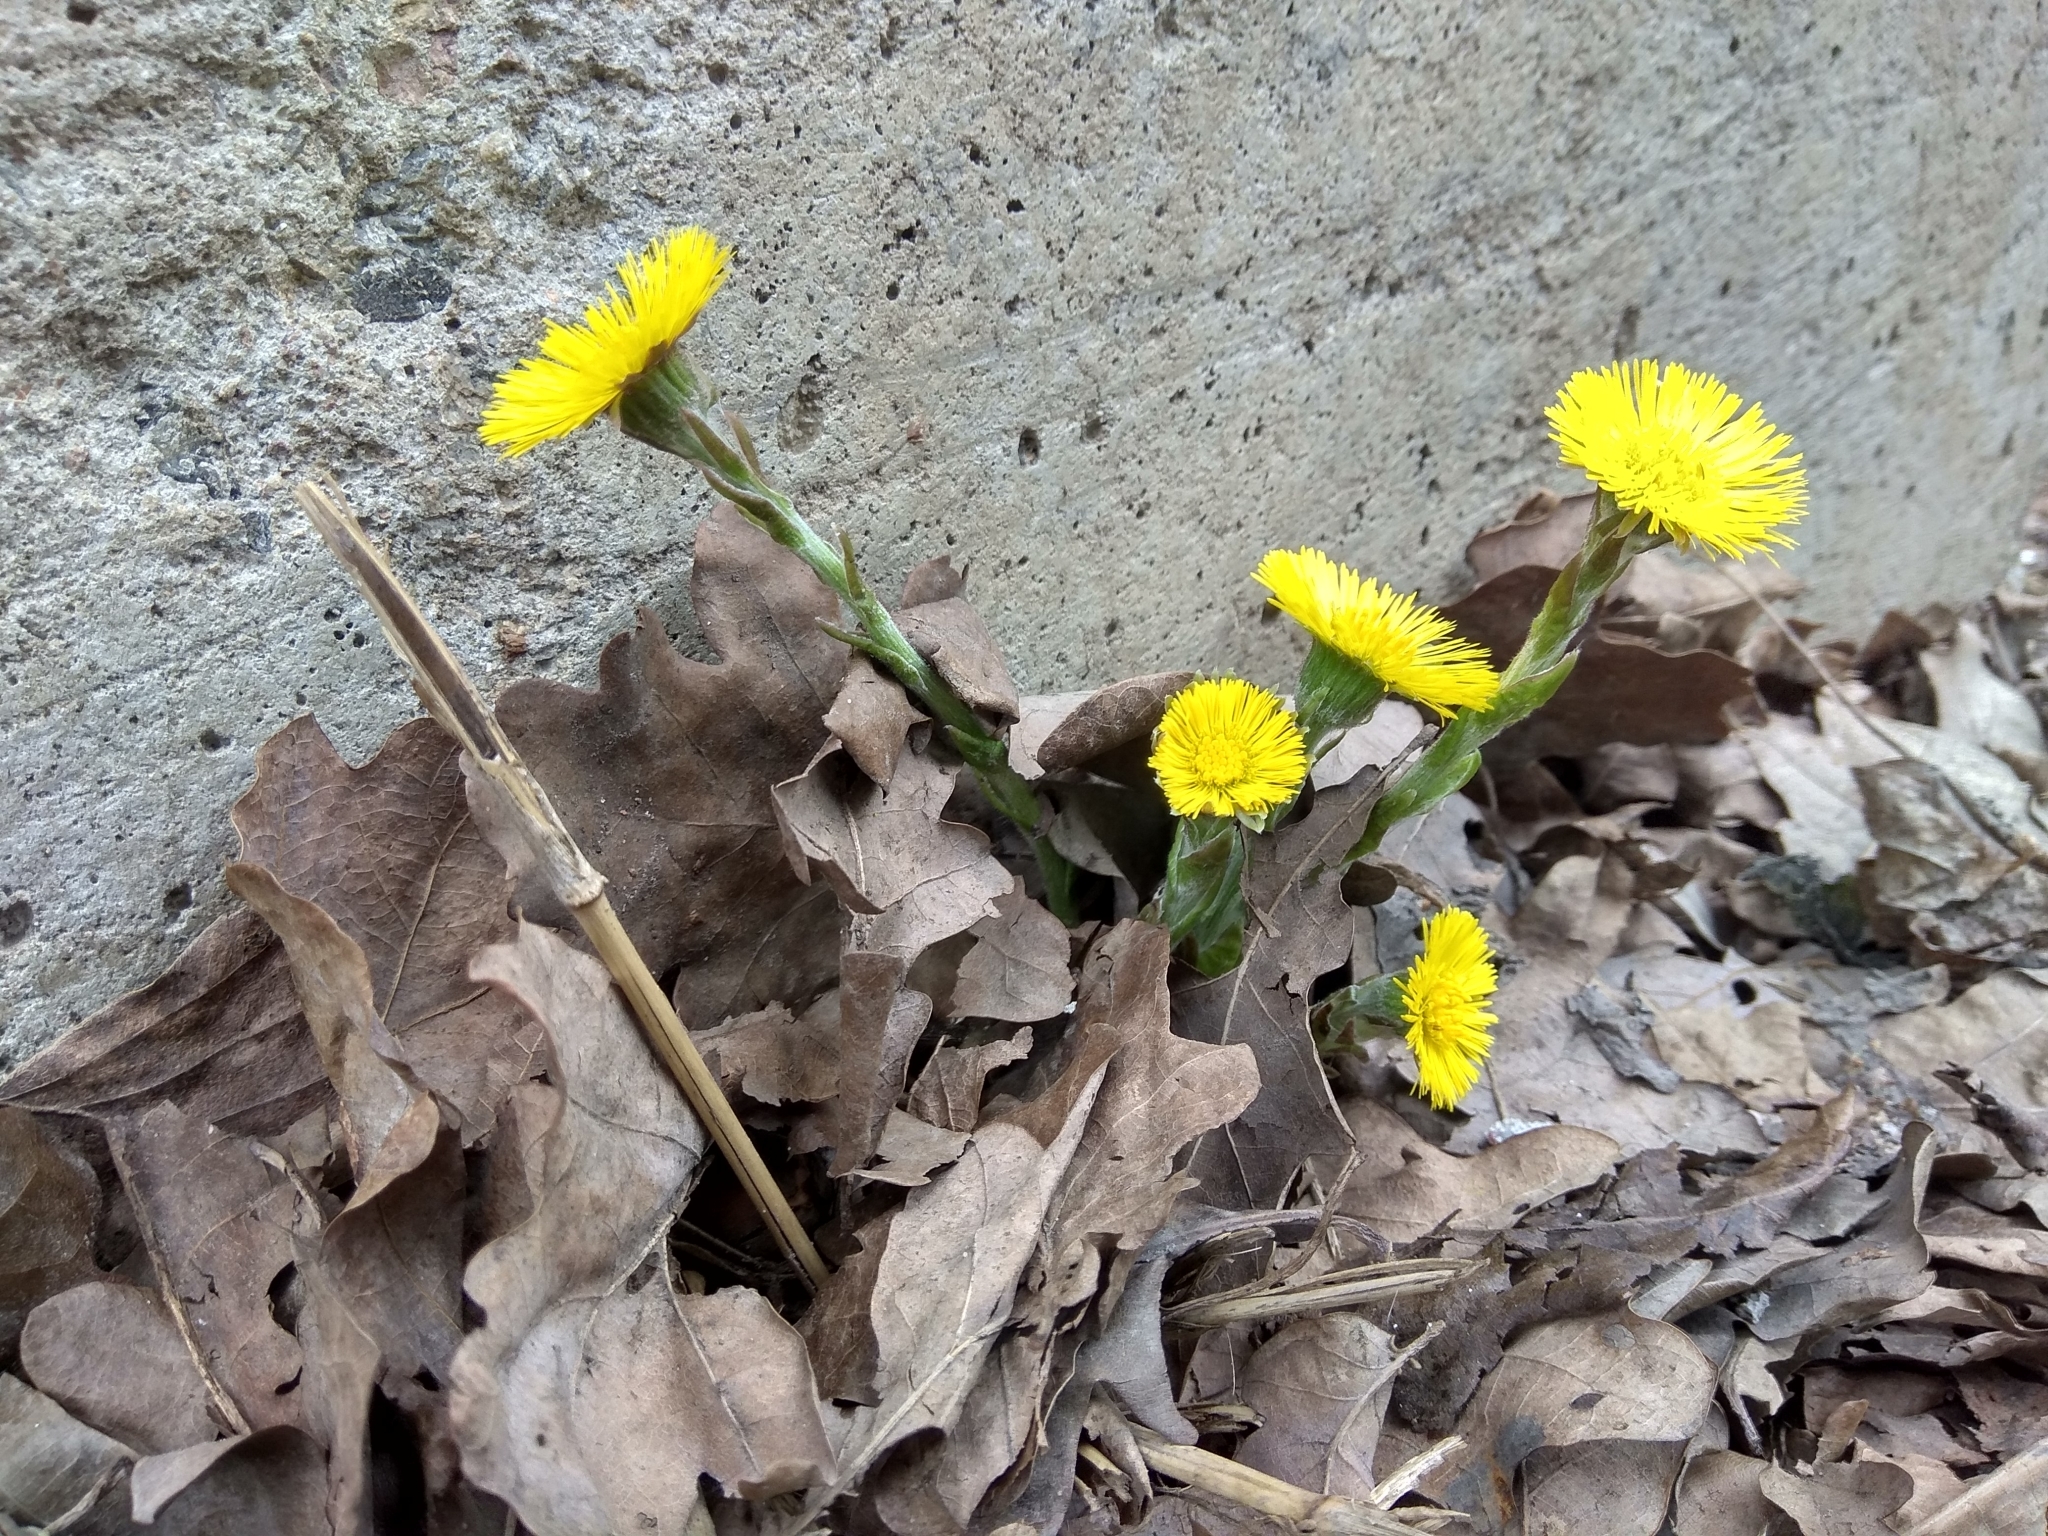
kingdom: Plantae
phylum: Tracheophyta
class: Magnoliopsida
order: Asterales
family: Asteraceae
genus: Tussilago
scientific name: Tussilago farfara
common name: Coltsfoot
